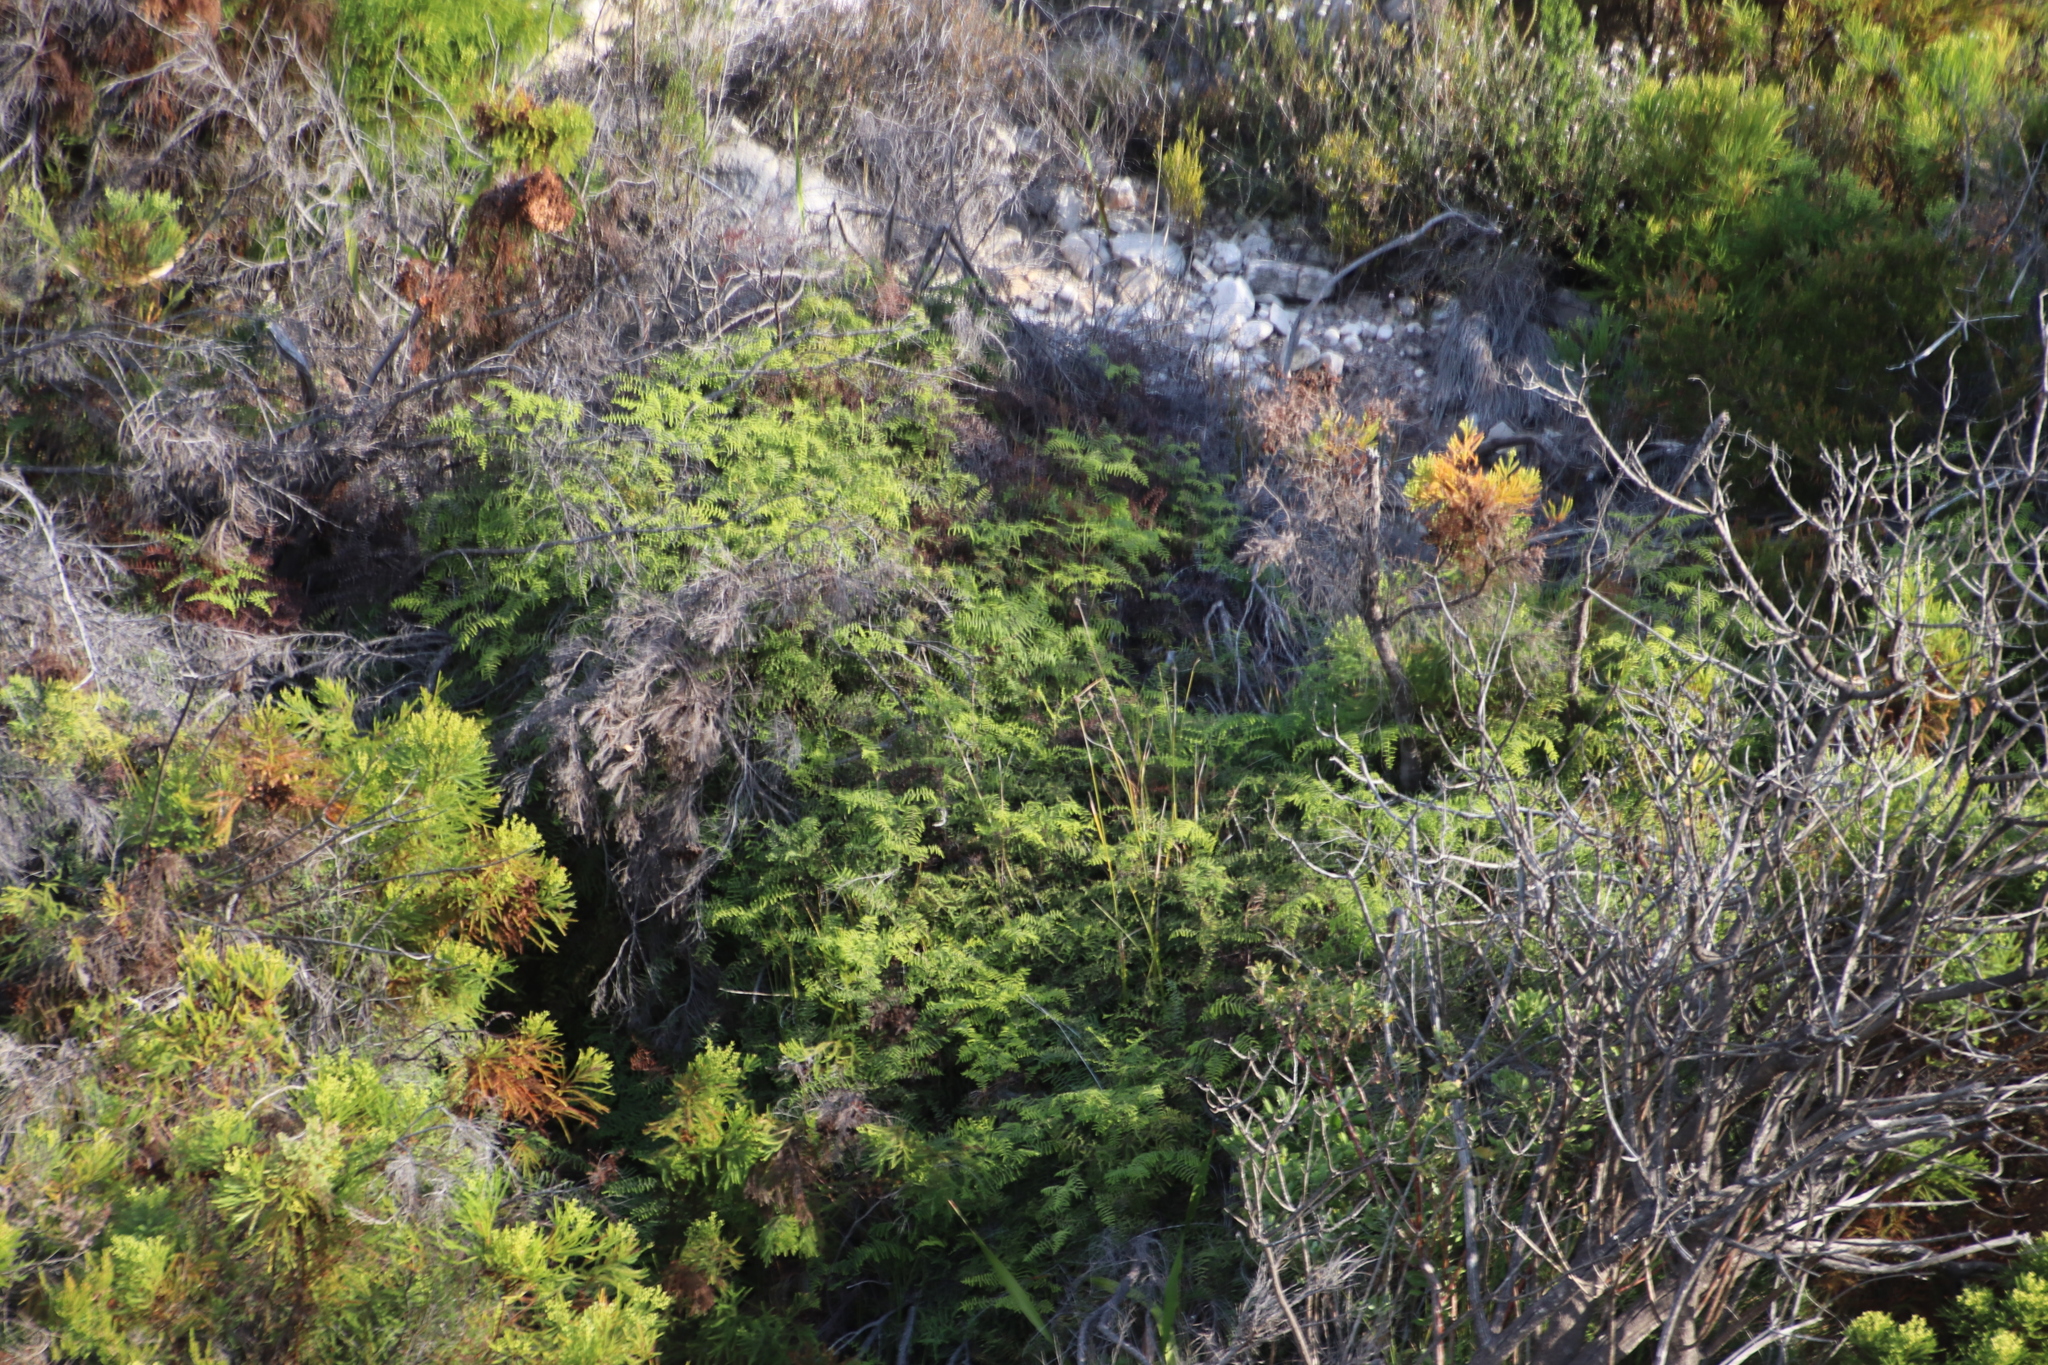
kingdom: Plantae
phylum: Tracheophyta
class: Polypodiopsida
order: Gleicheniales
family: Gleicheniaceae
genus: Gleichenia
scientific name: Gleichenia polypodioides
